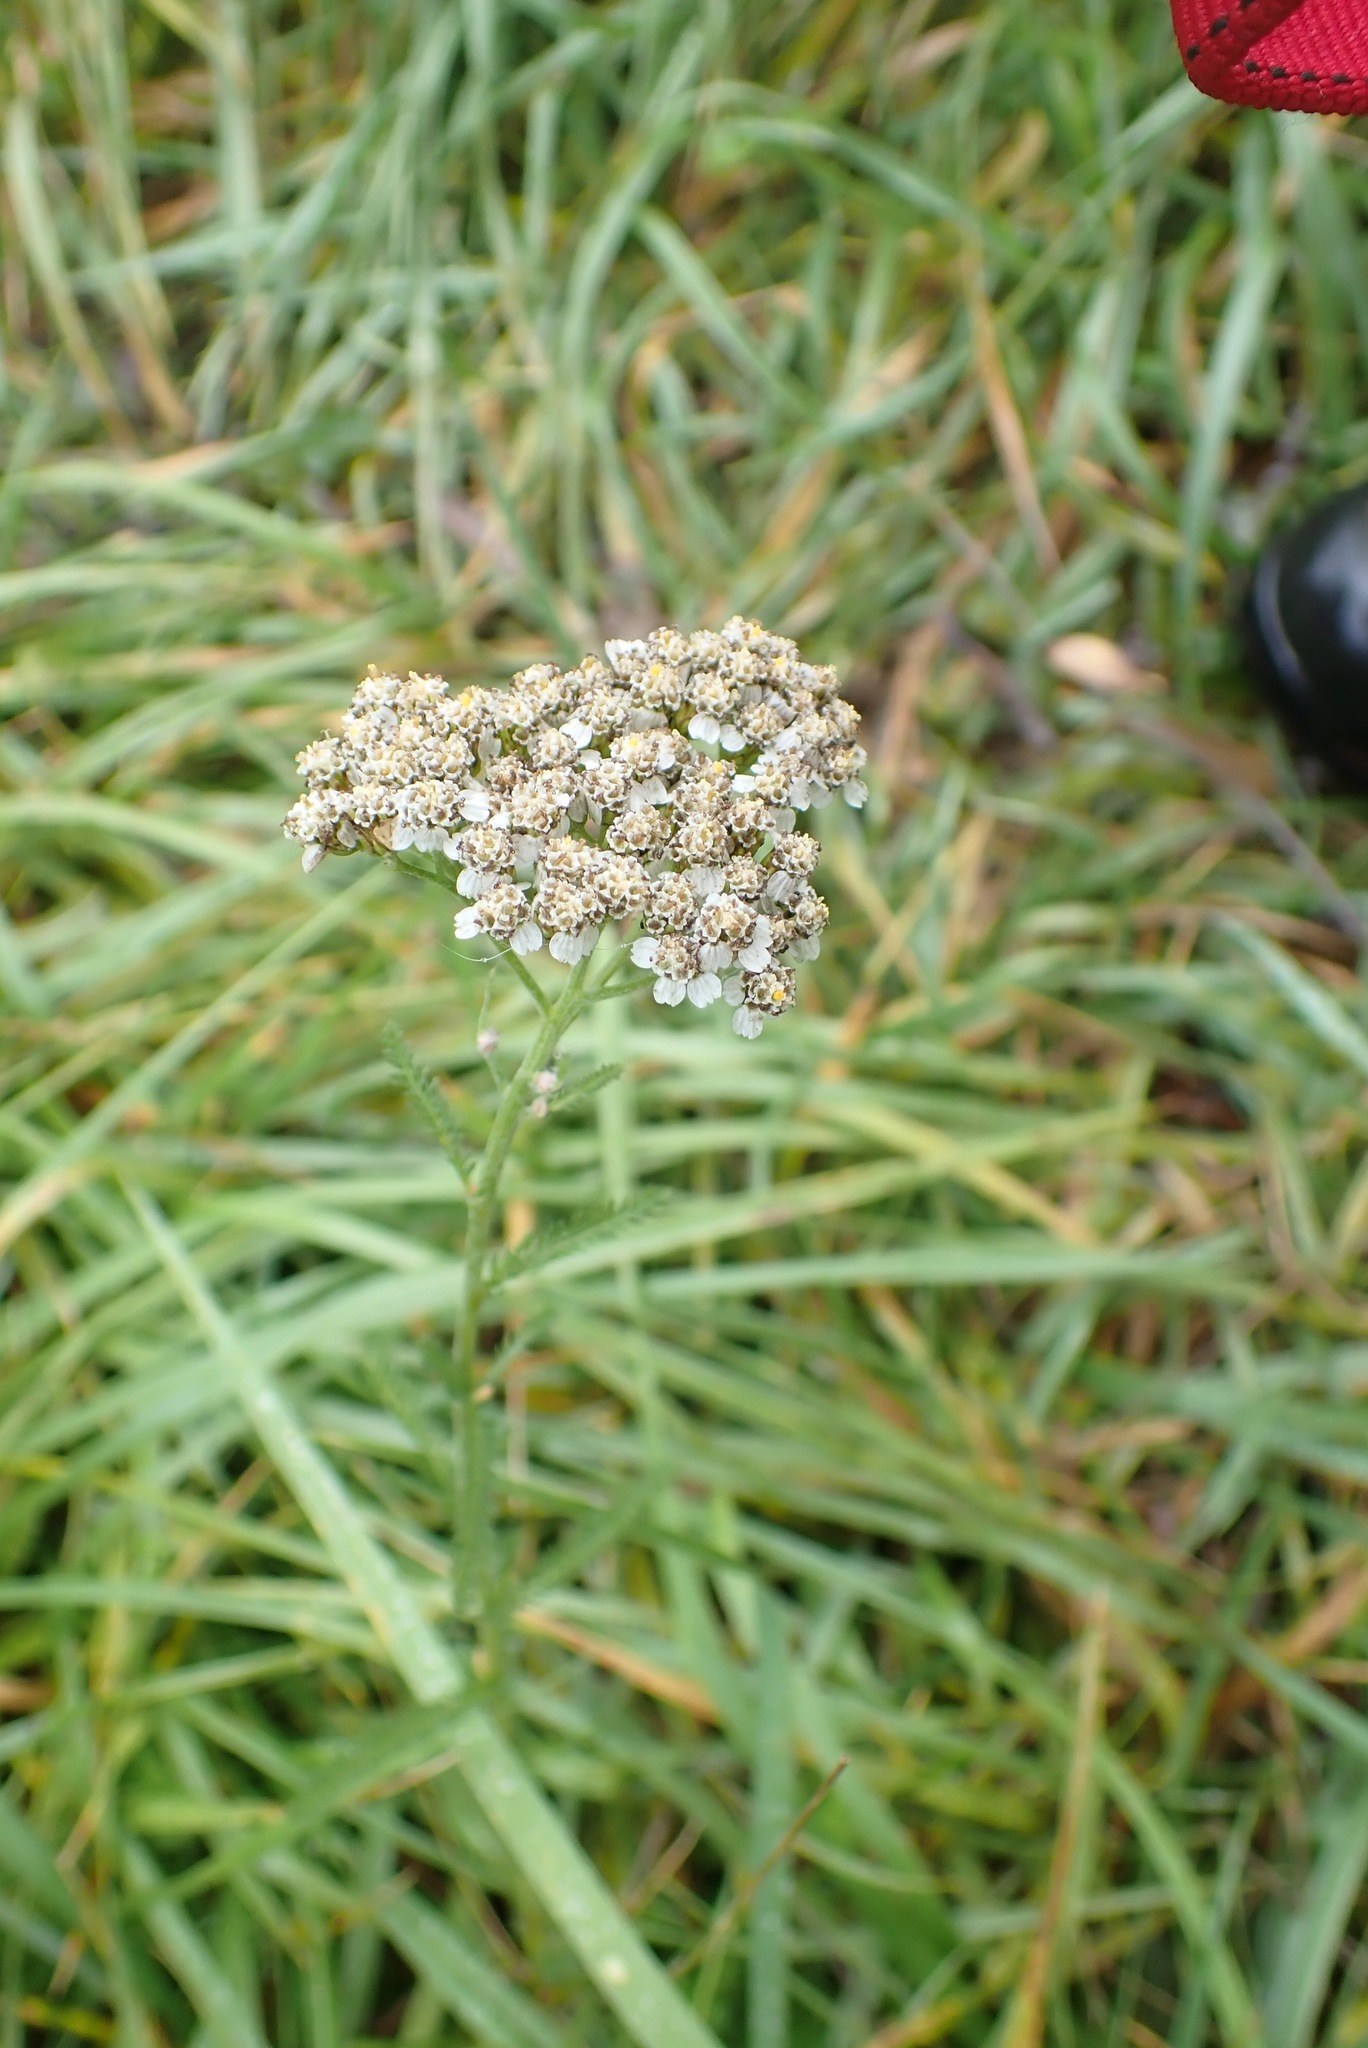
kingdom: Plantae
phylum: Tracheophyta
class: Magnoliopsida
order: Asterales
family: Asteraceae
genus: Achillea
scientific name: Achillea millefolium
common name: Yarrow
